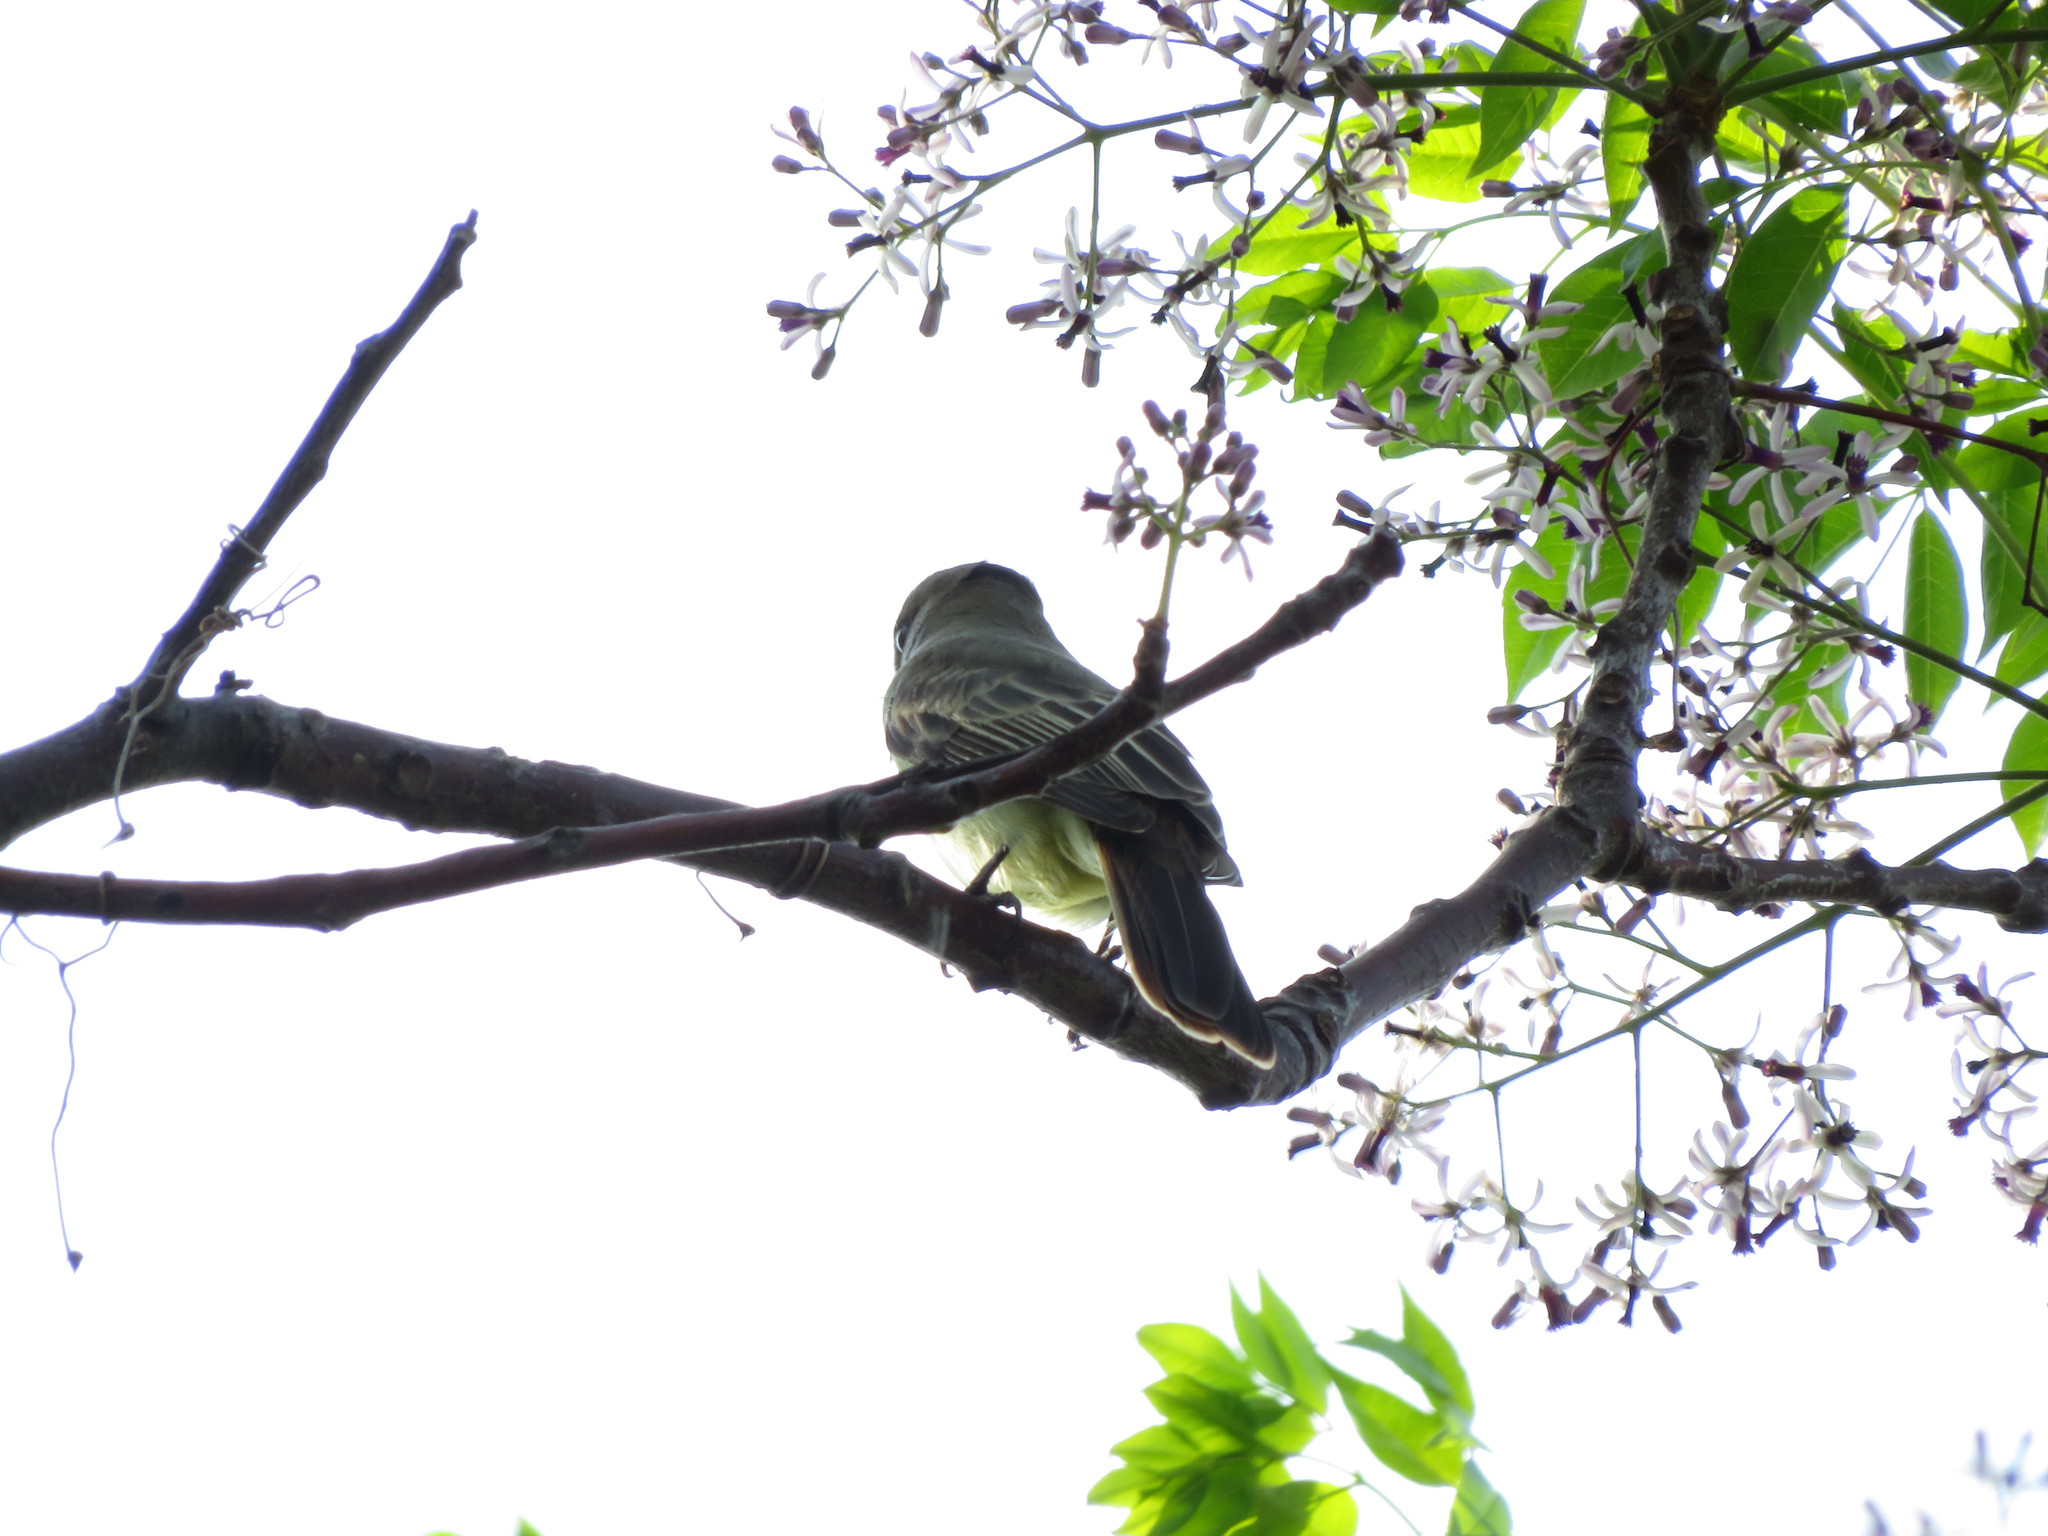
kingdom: Animalia
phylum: Chordata
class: Aves
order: Passeriformes
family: Tyrannidae
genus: Myiarchus
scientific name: Myiarchus swainsoni
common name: Swainson's flycatcher
